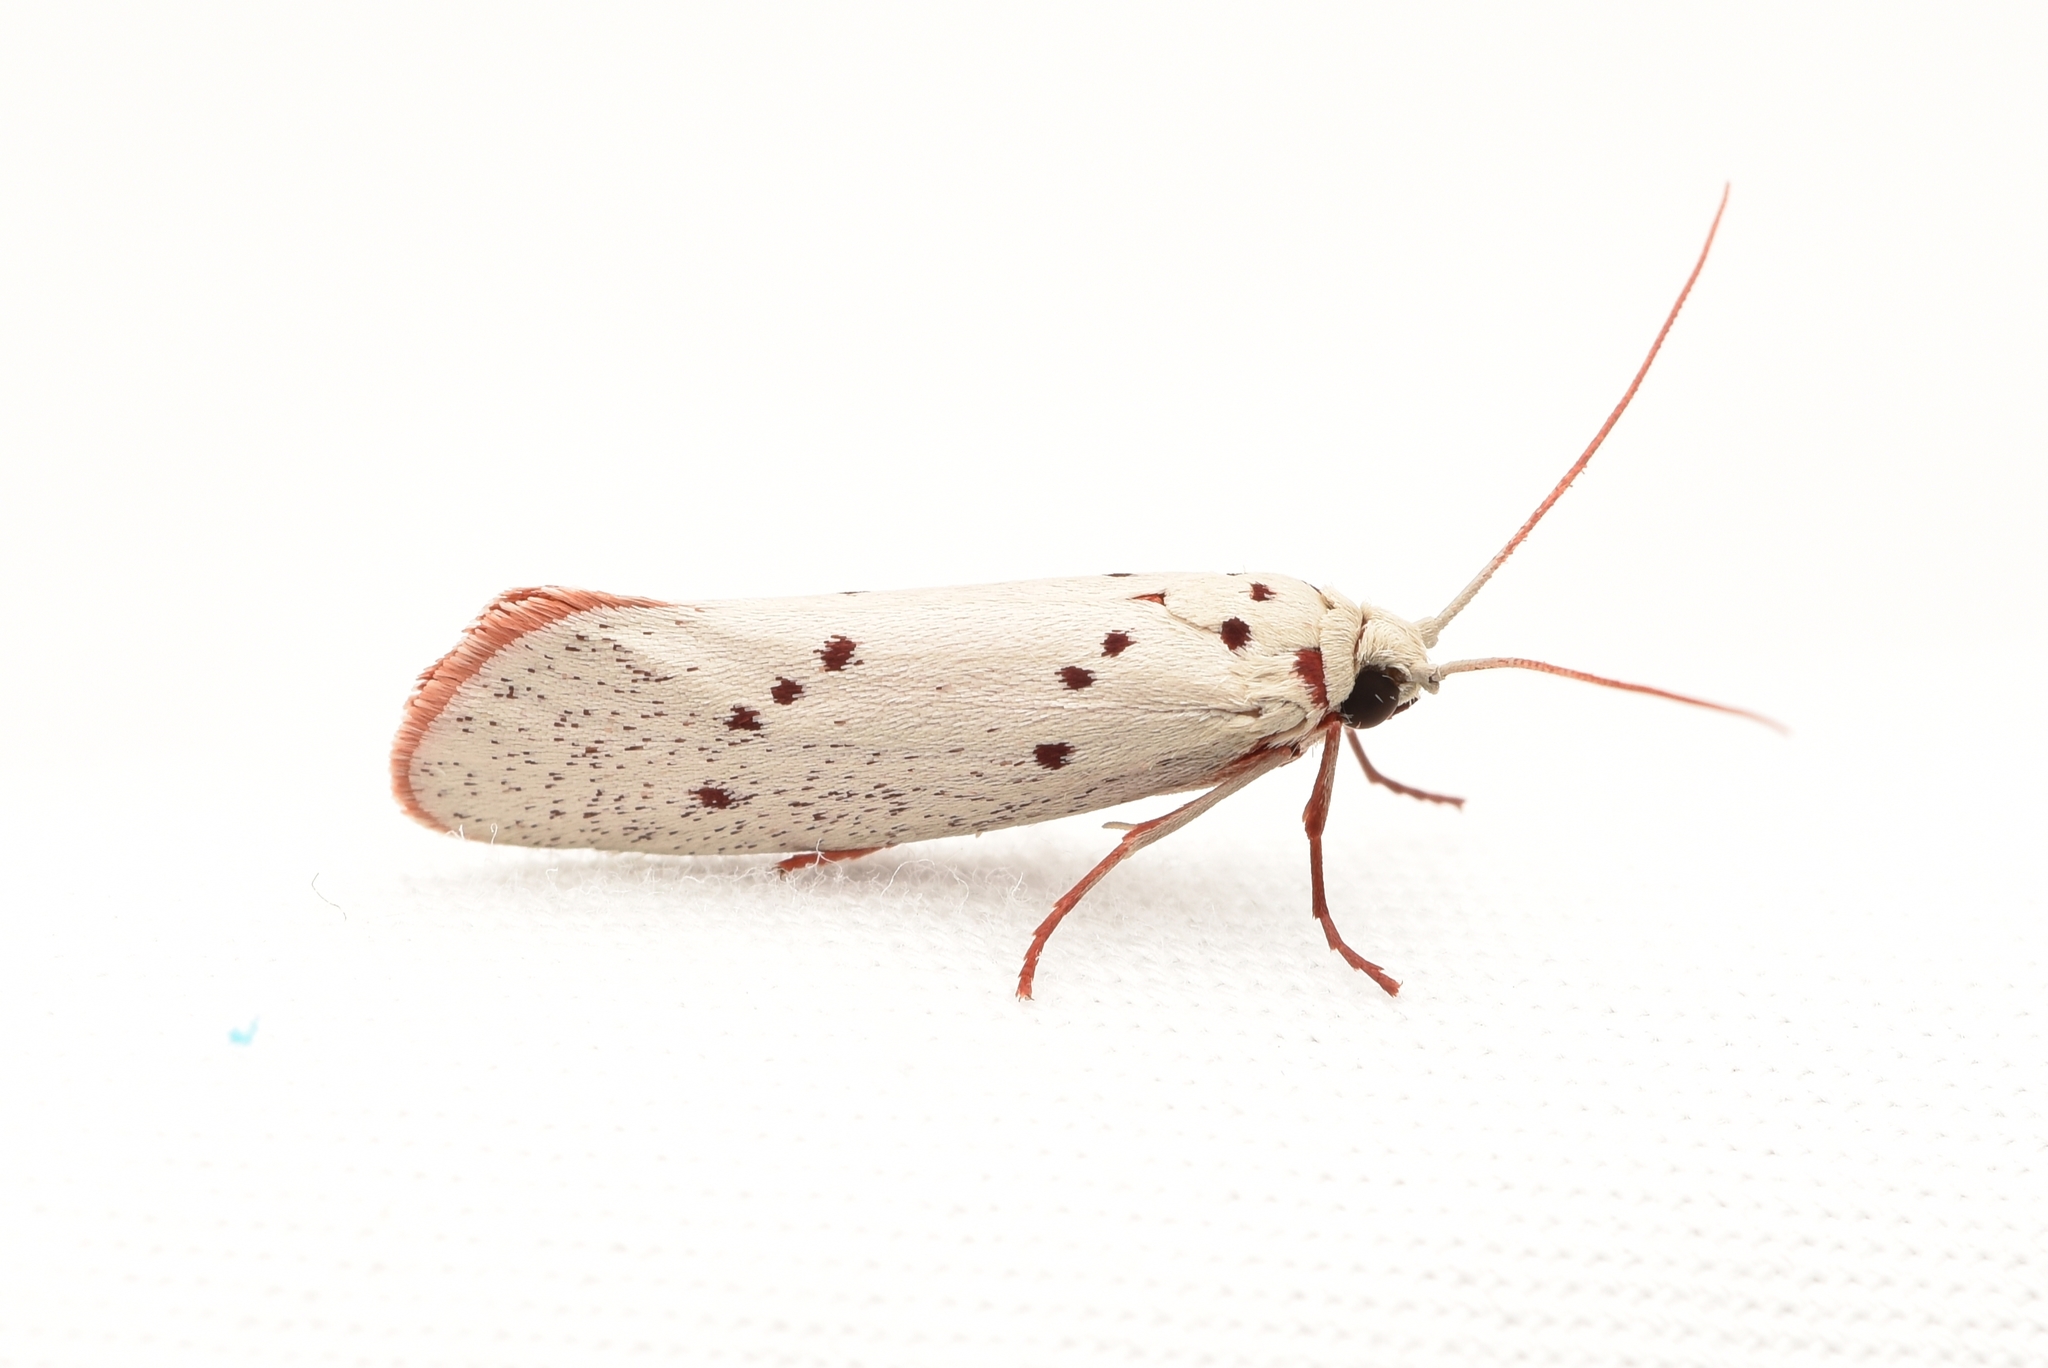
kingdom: Animalia
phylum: Arthropoda
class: Insecta
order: Lepidoptera
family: Lacturidae
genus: Lactura
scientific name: Lactura
